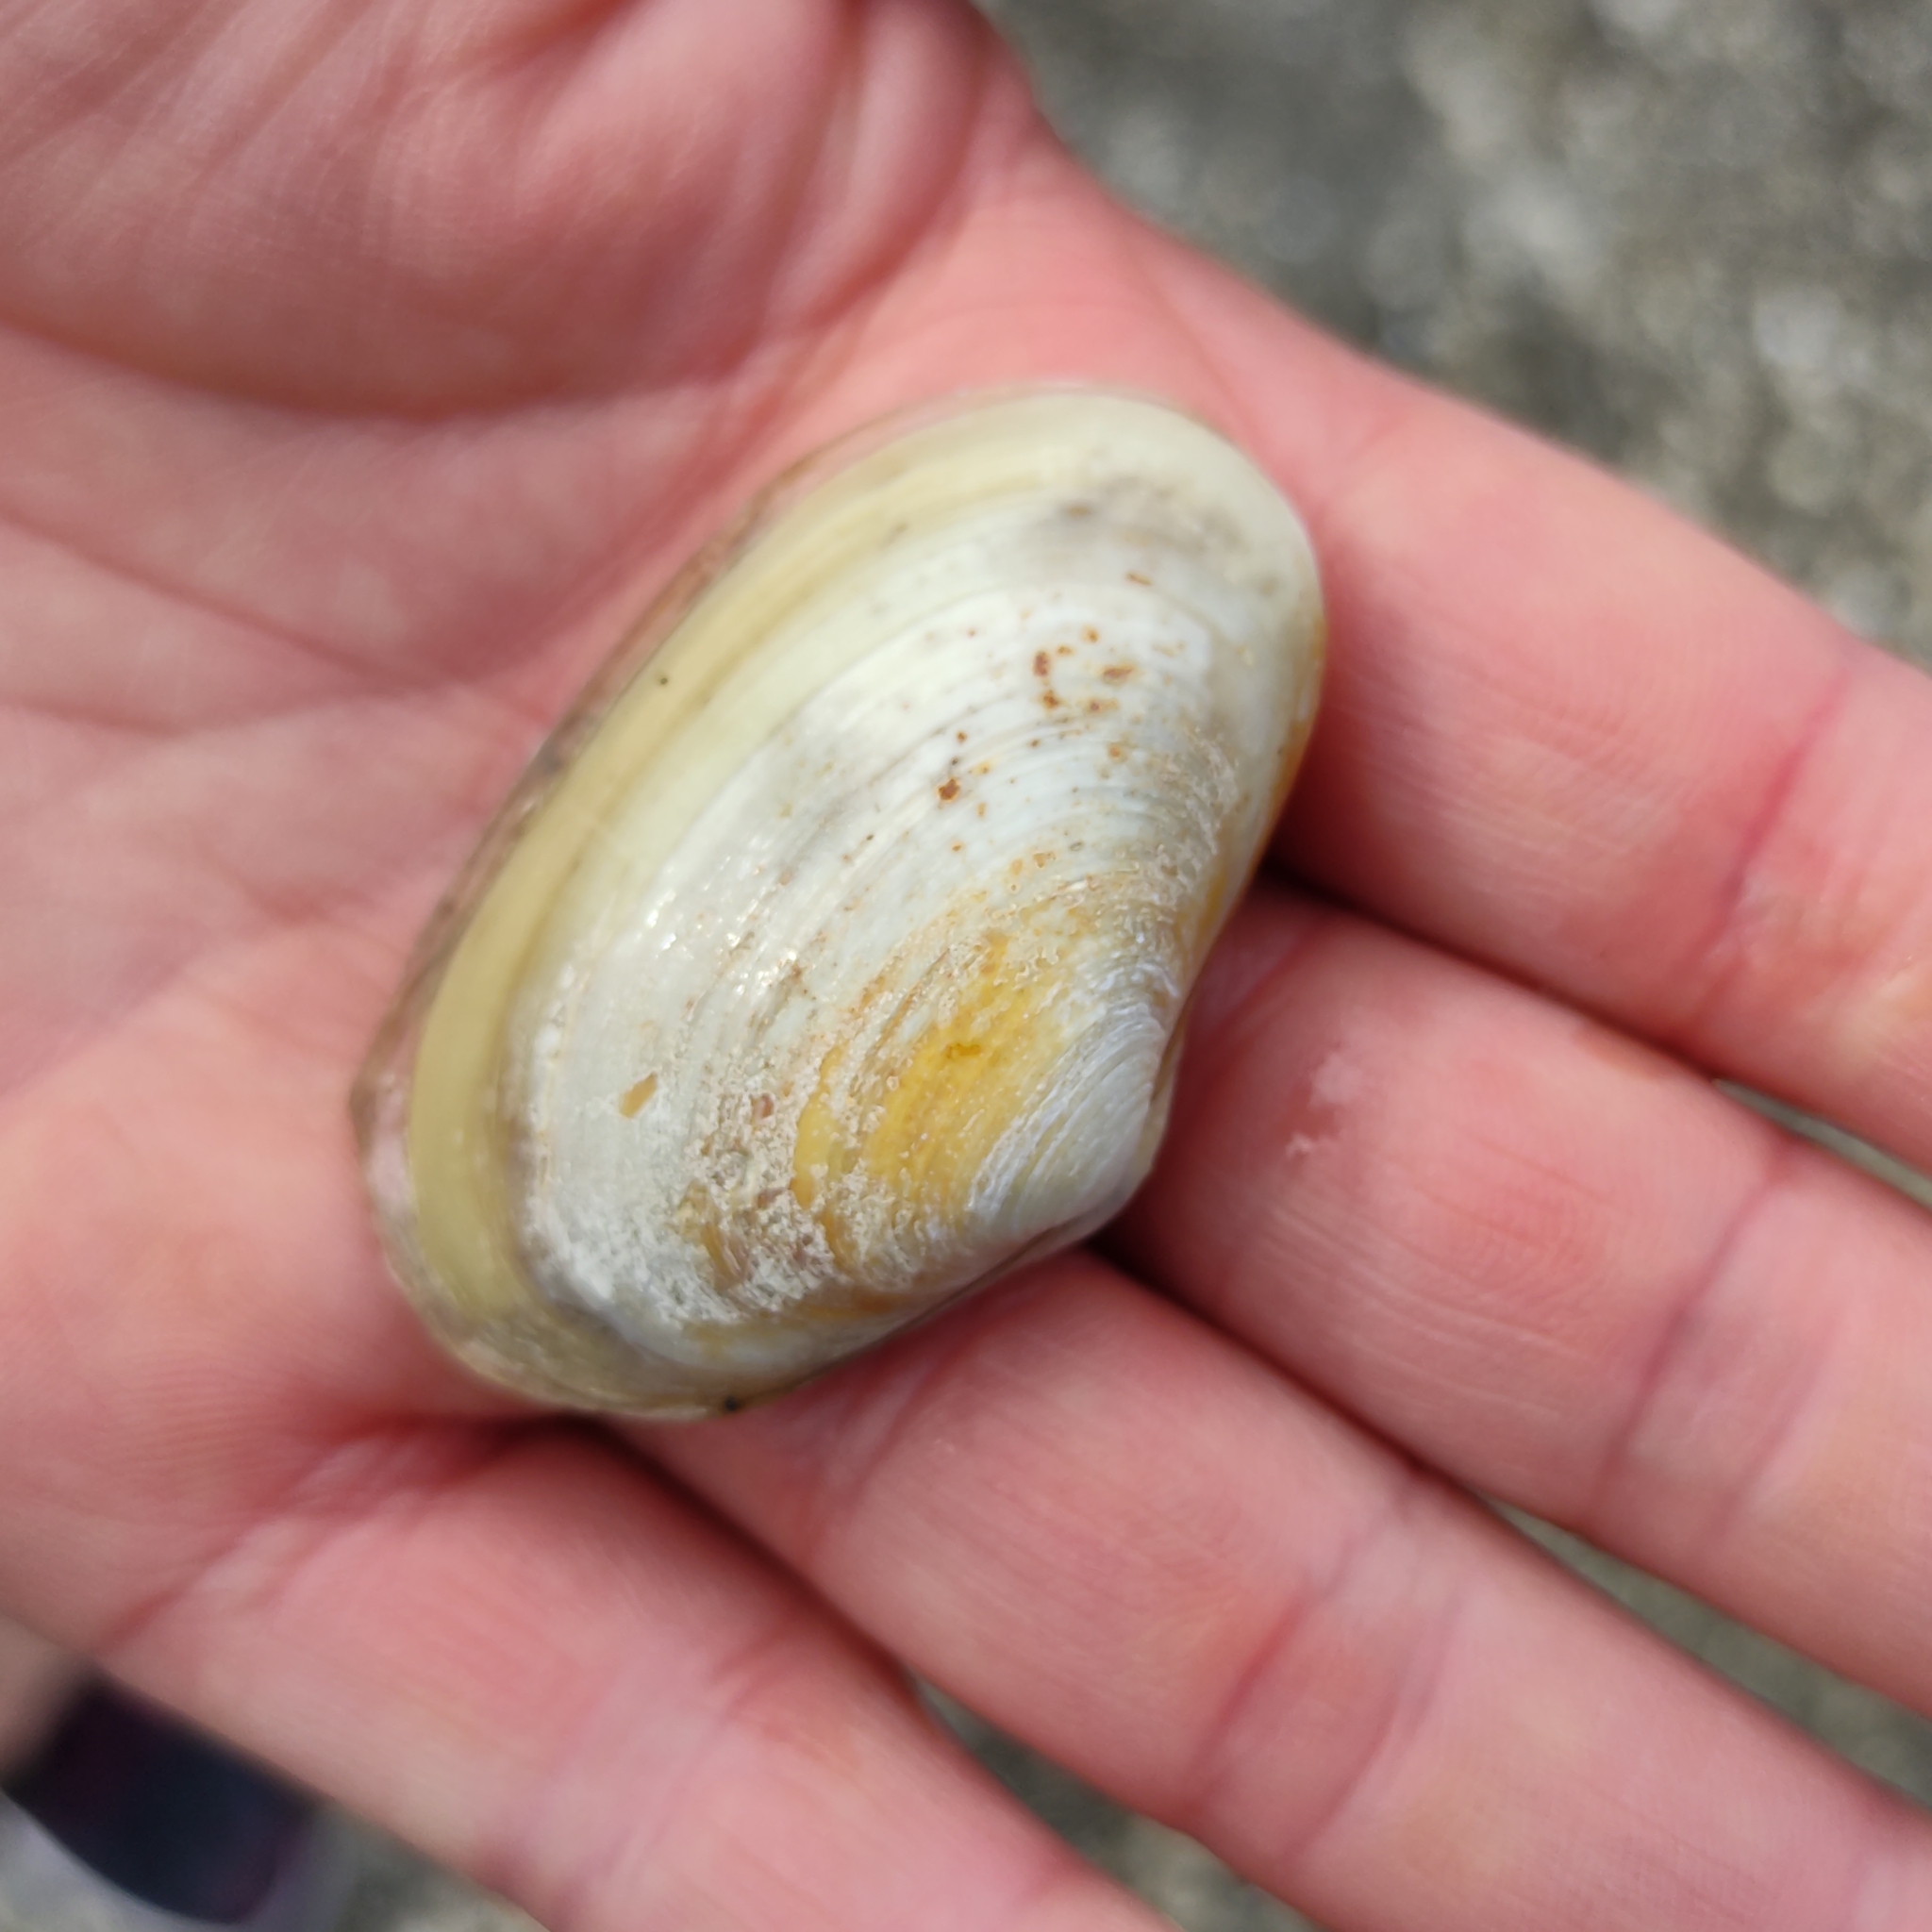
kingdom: Animalia
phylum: Mollusca
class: Bivalvia
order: Venerida
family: Mesodesmatidae
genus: Paphies
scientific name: Paphies australis
